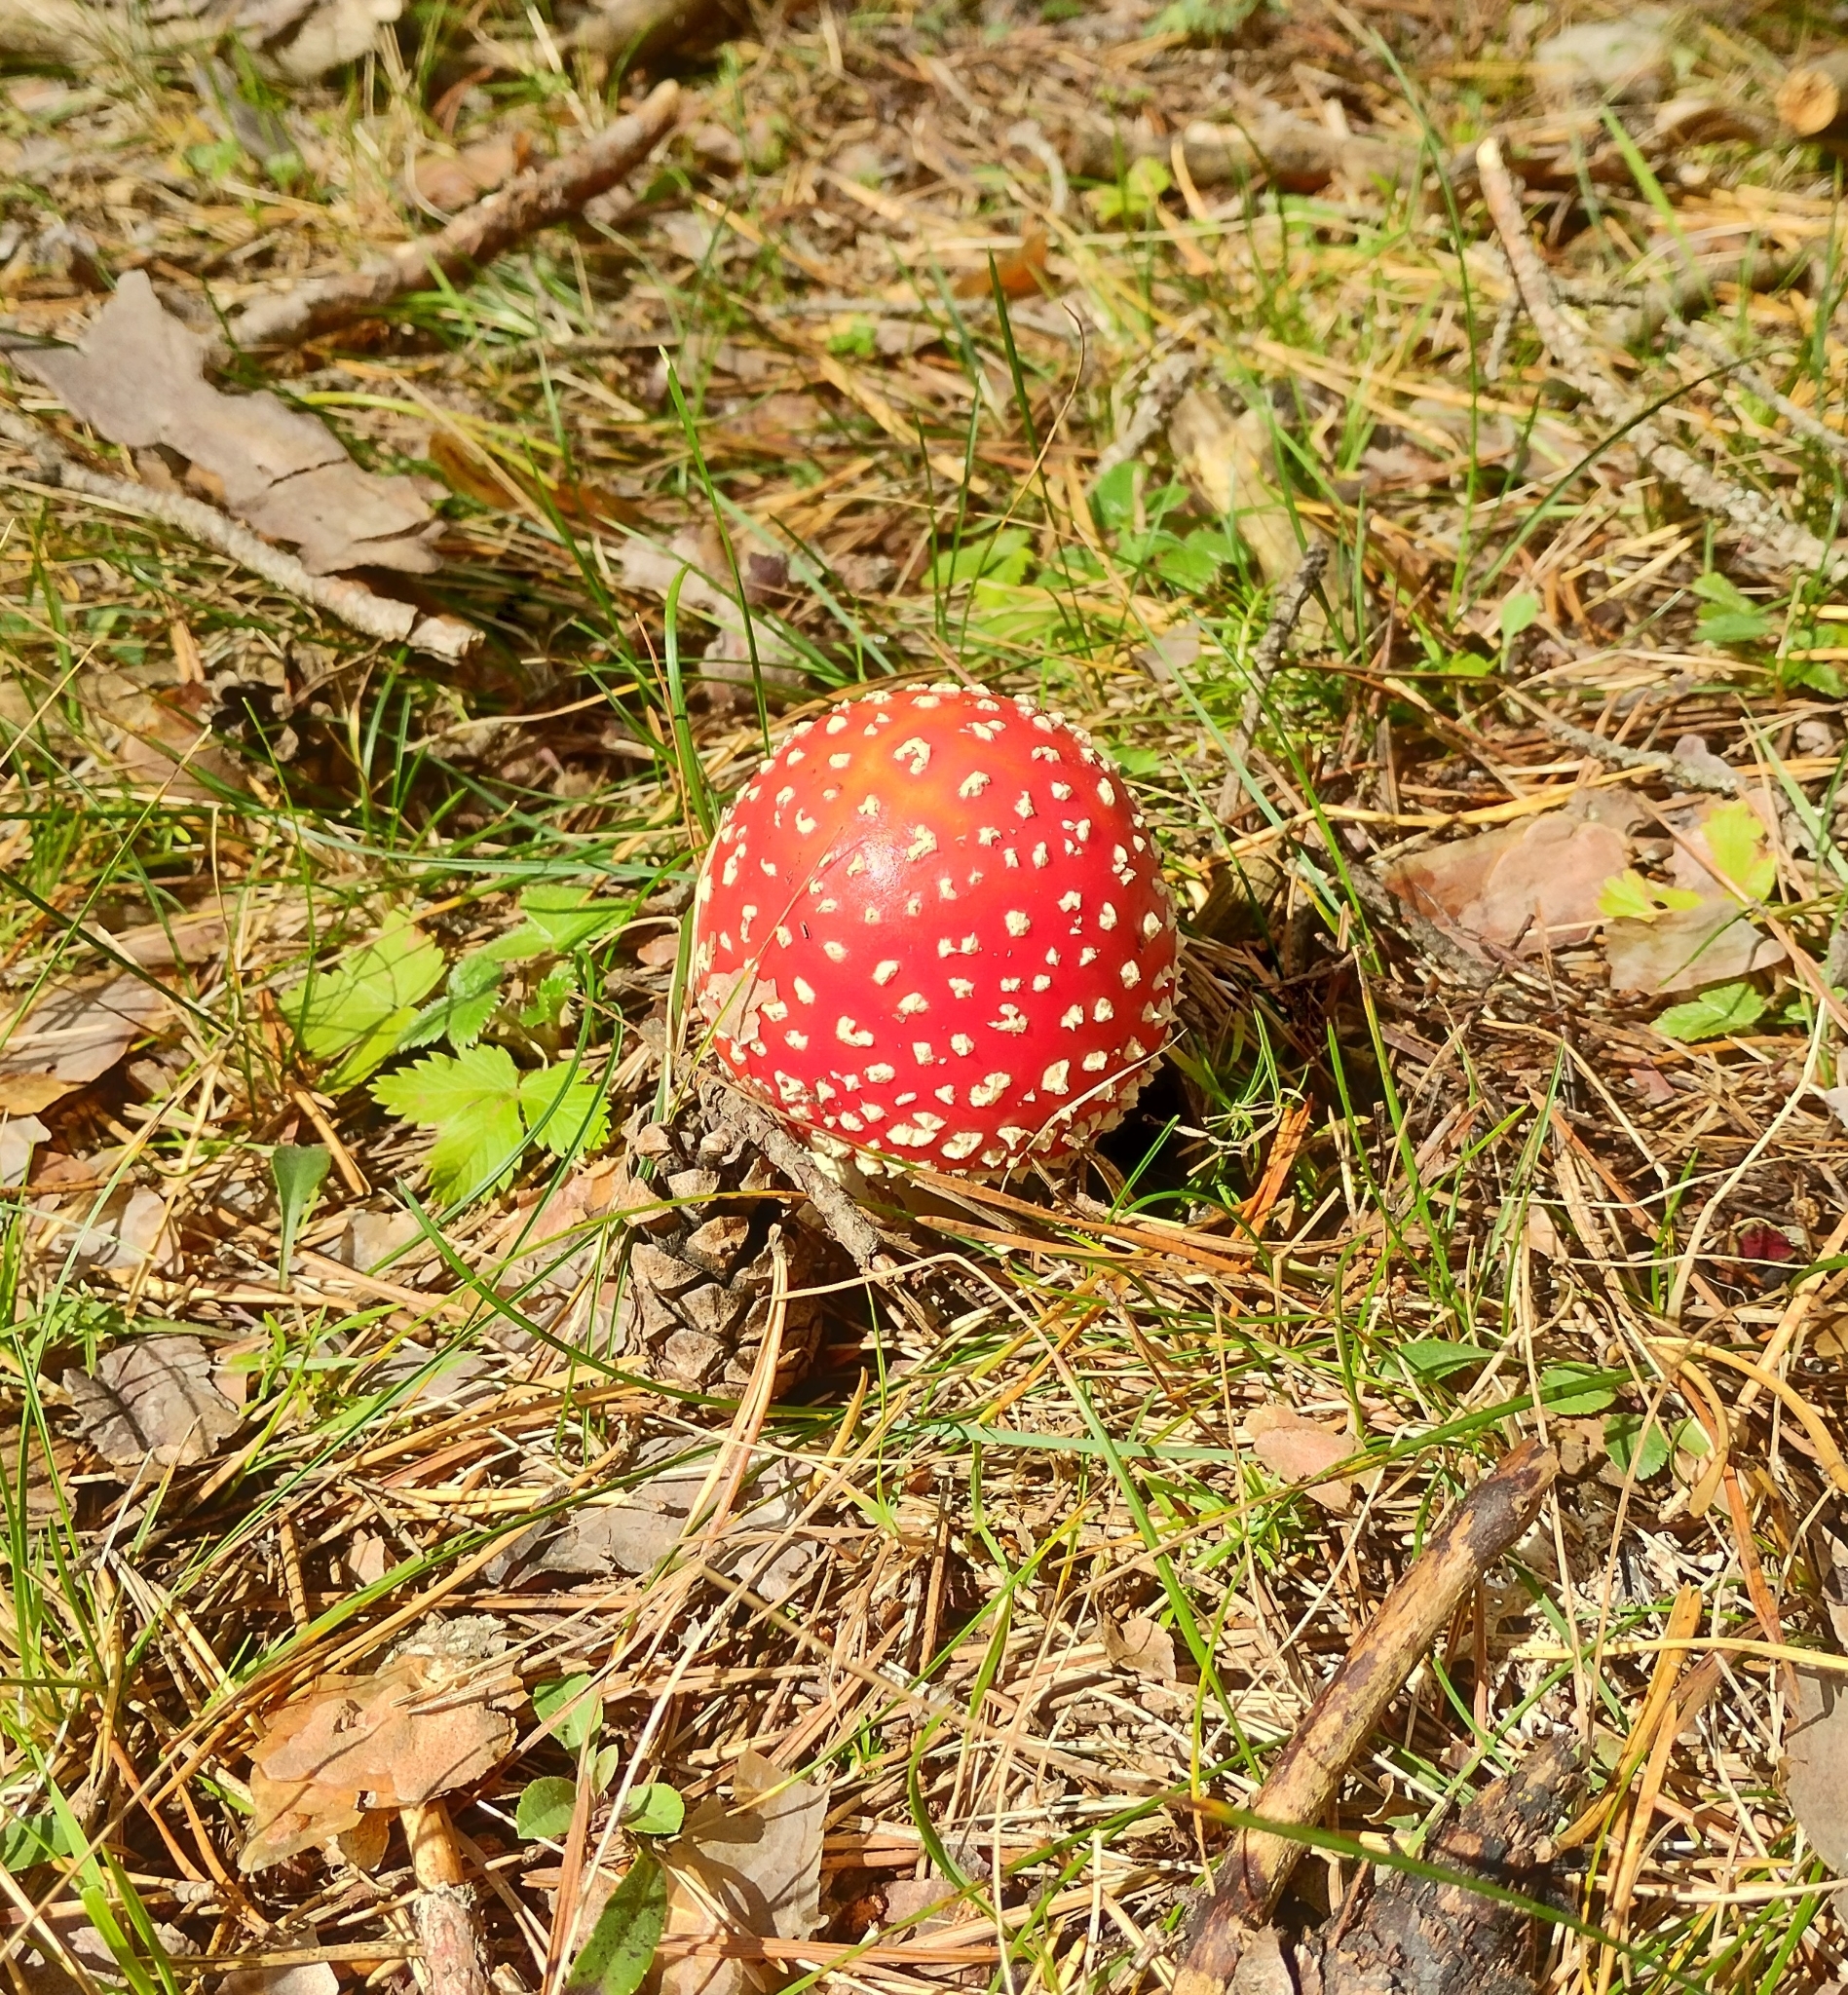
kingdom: Fungi
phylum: Basidiomycota
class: Agaricomycetes
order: Agaricales
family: Amanitaceae
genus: Amanita
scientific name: Amanita muscaria
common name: Fly agaric
